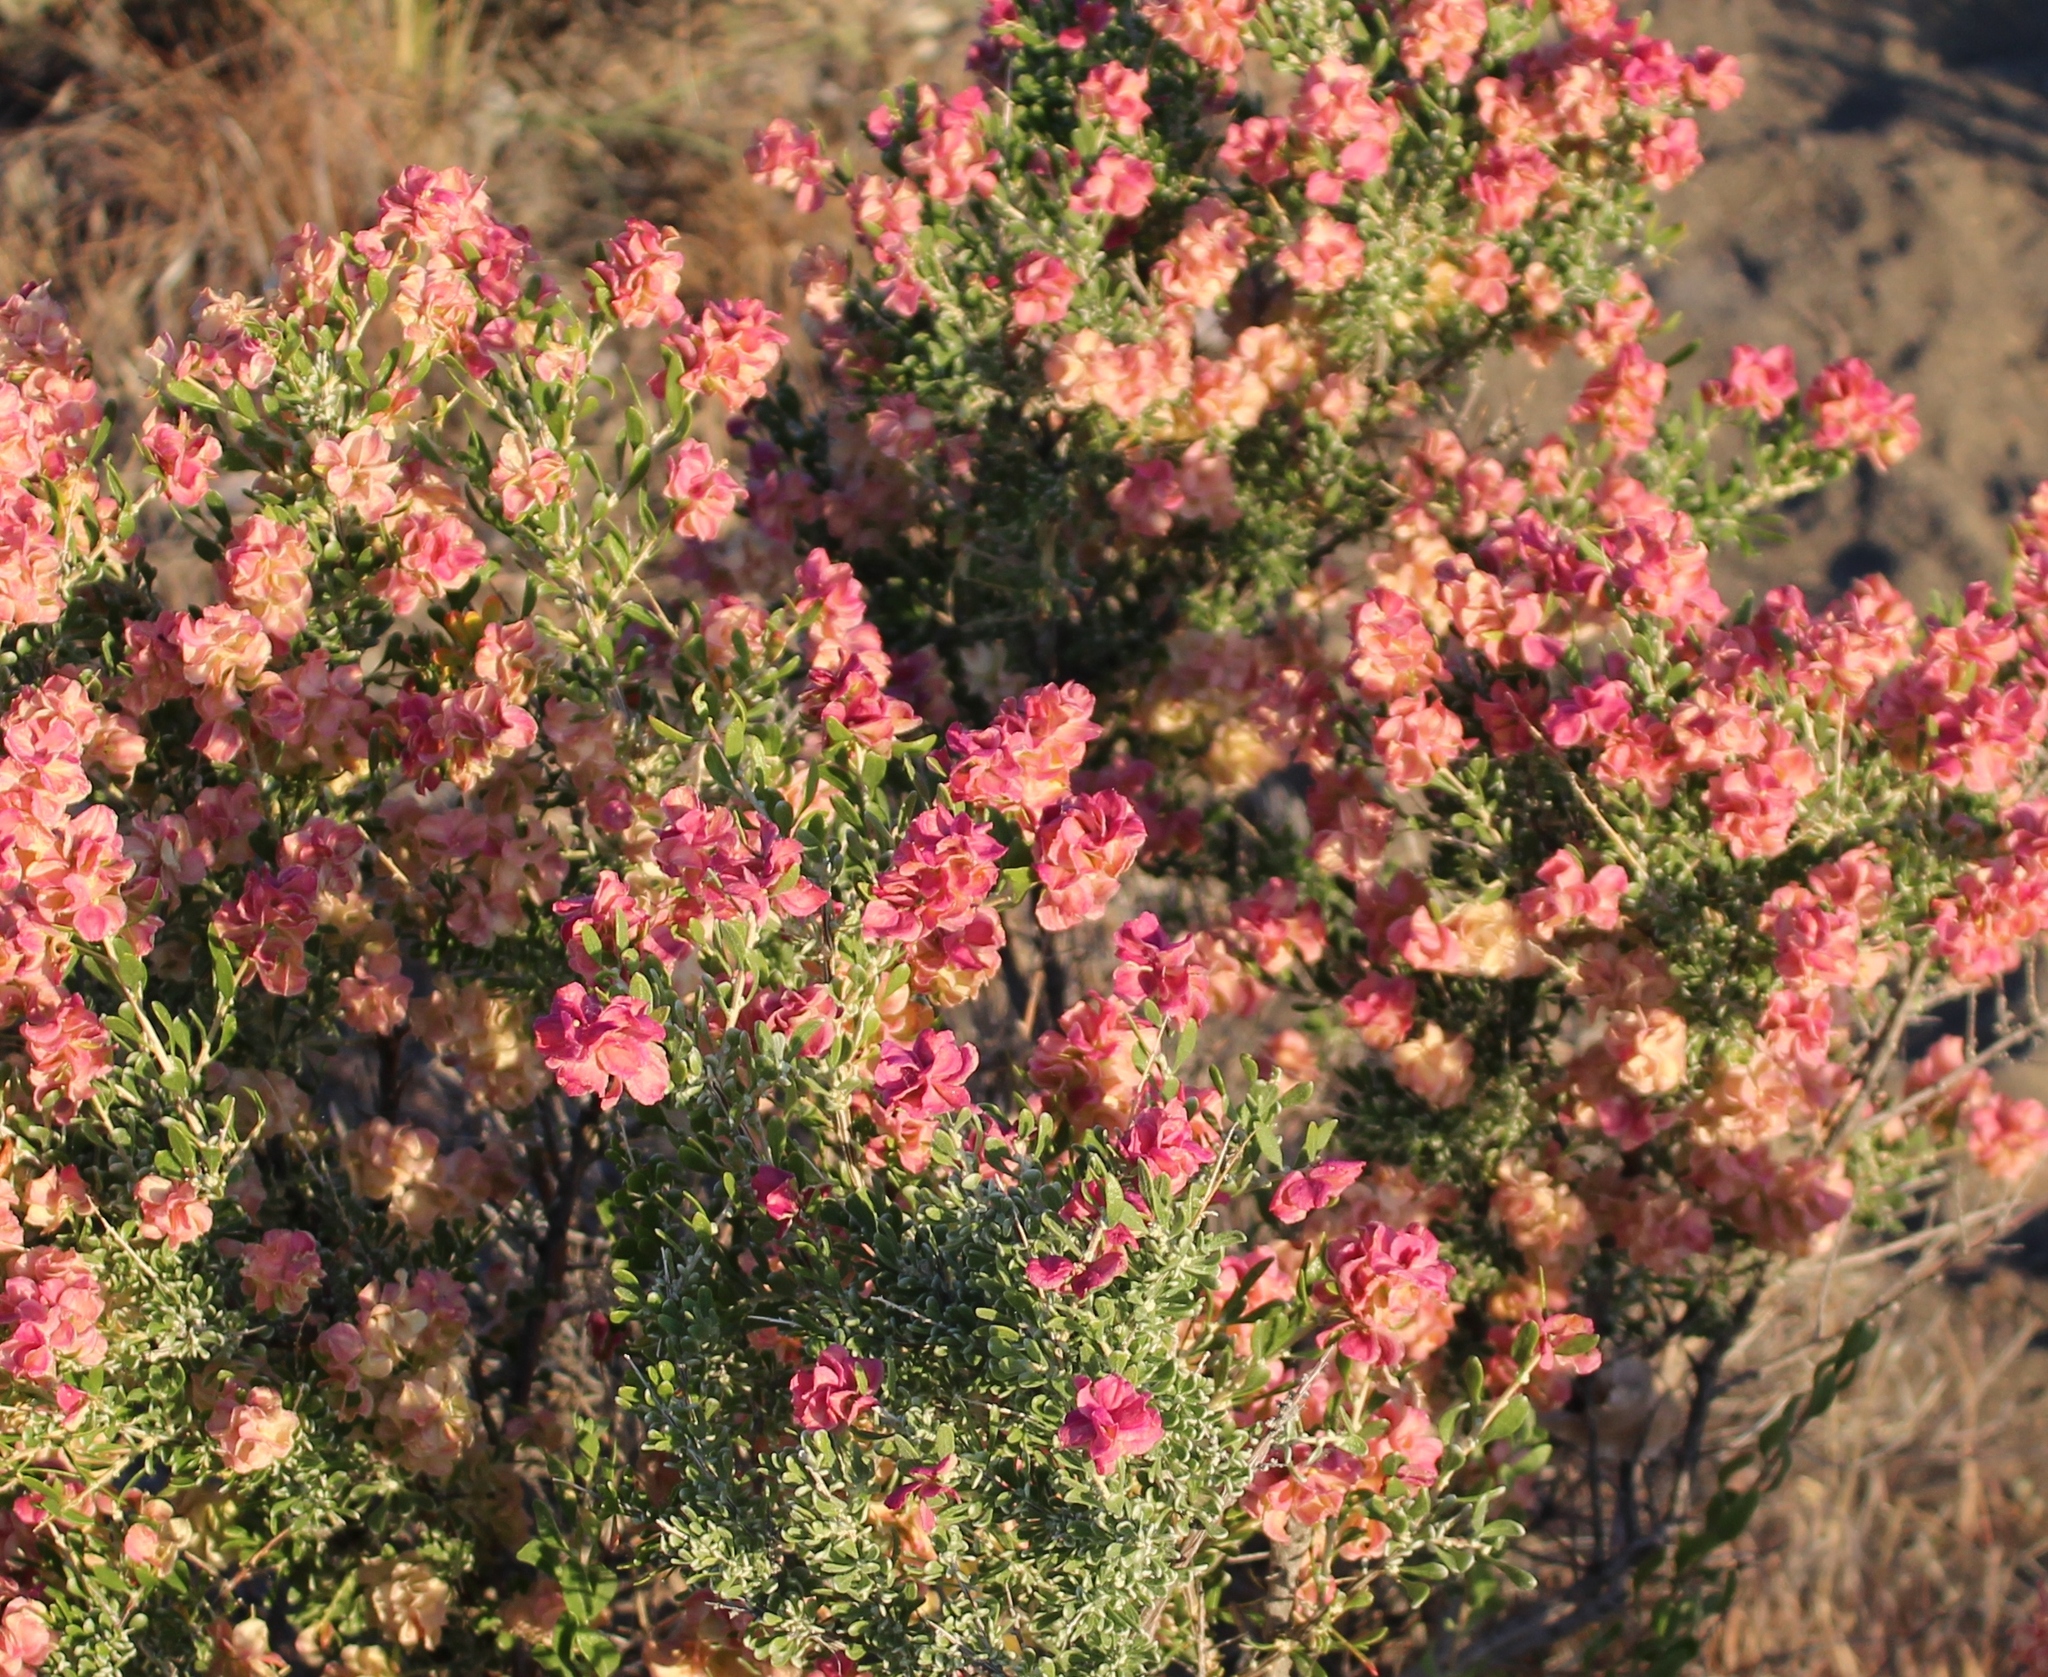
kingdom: Plantae
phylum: Tracheophyta
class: Magnoliopsida
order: Caryophyllales
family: Amaranthaceae
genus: Grayia
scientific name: Grayia spinosa
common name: Spiny hopsage
